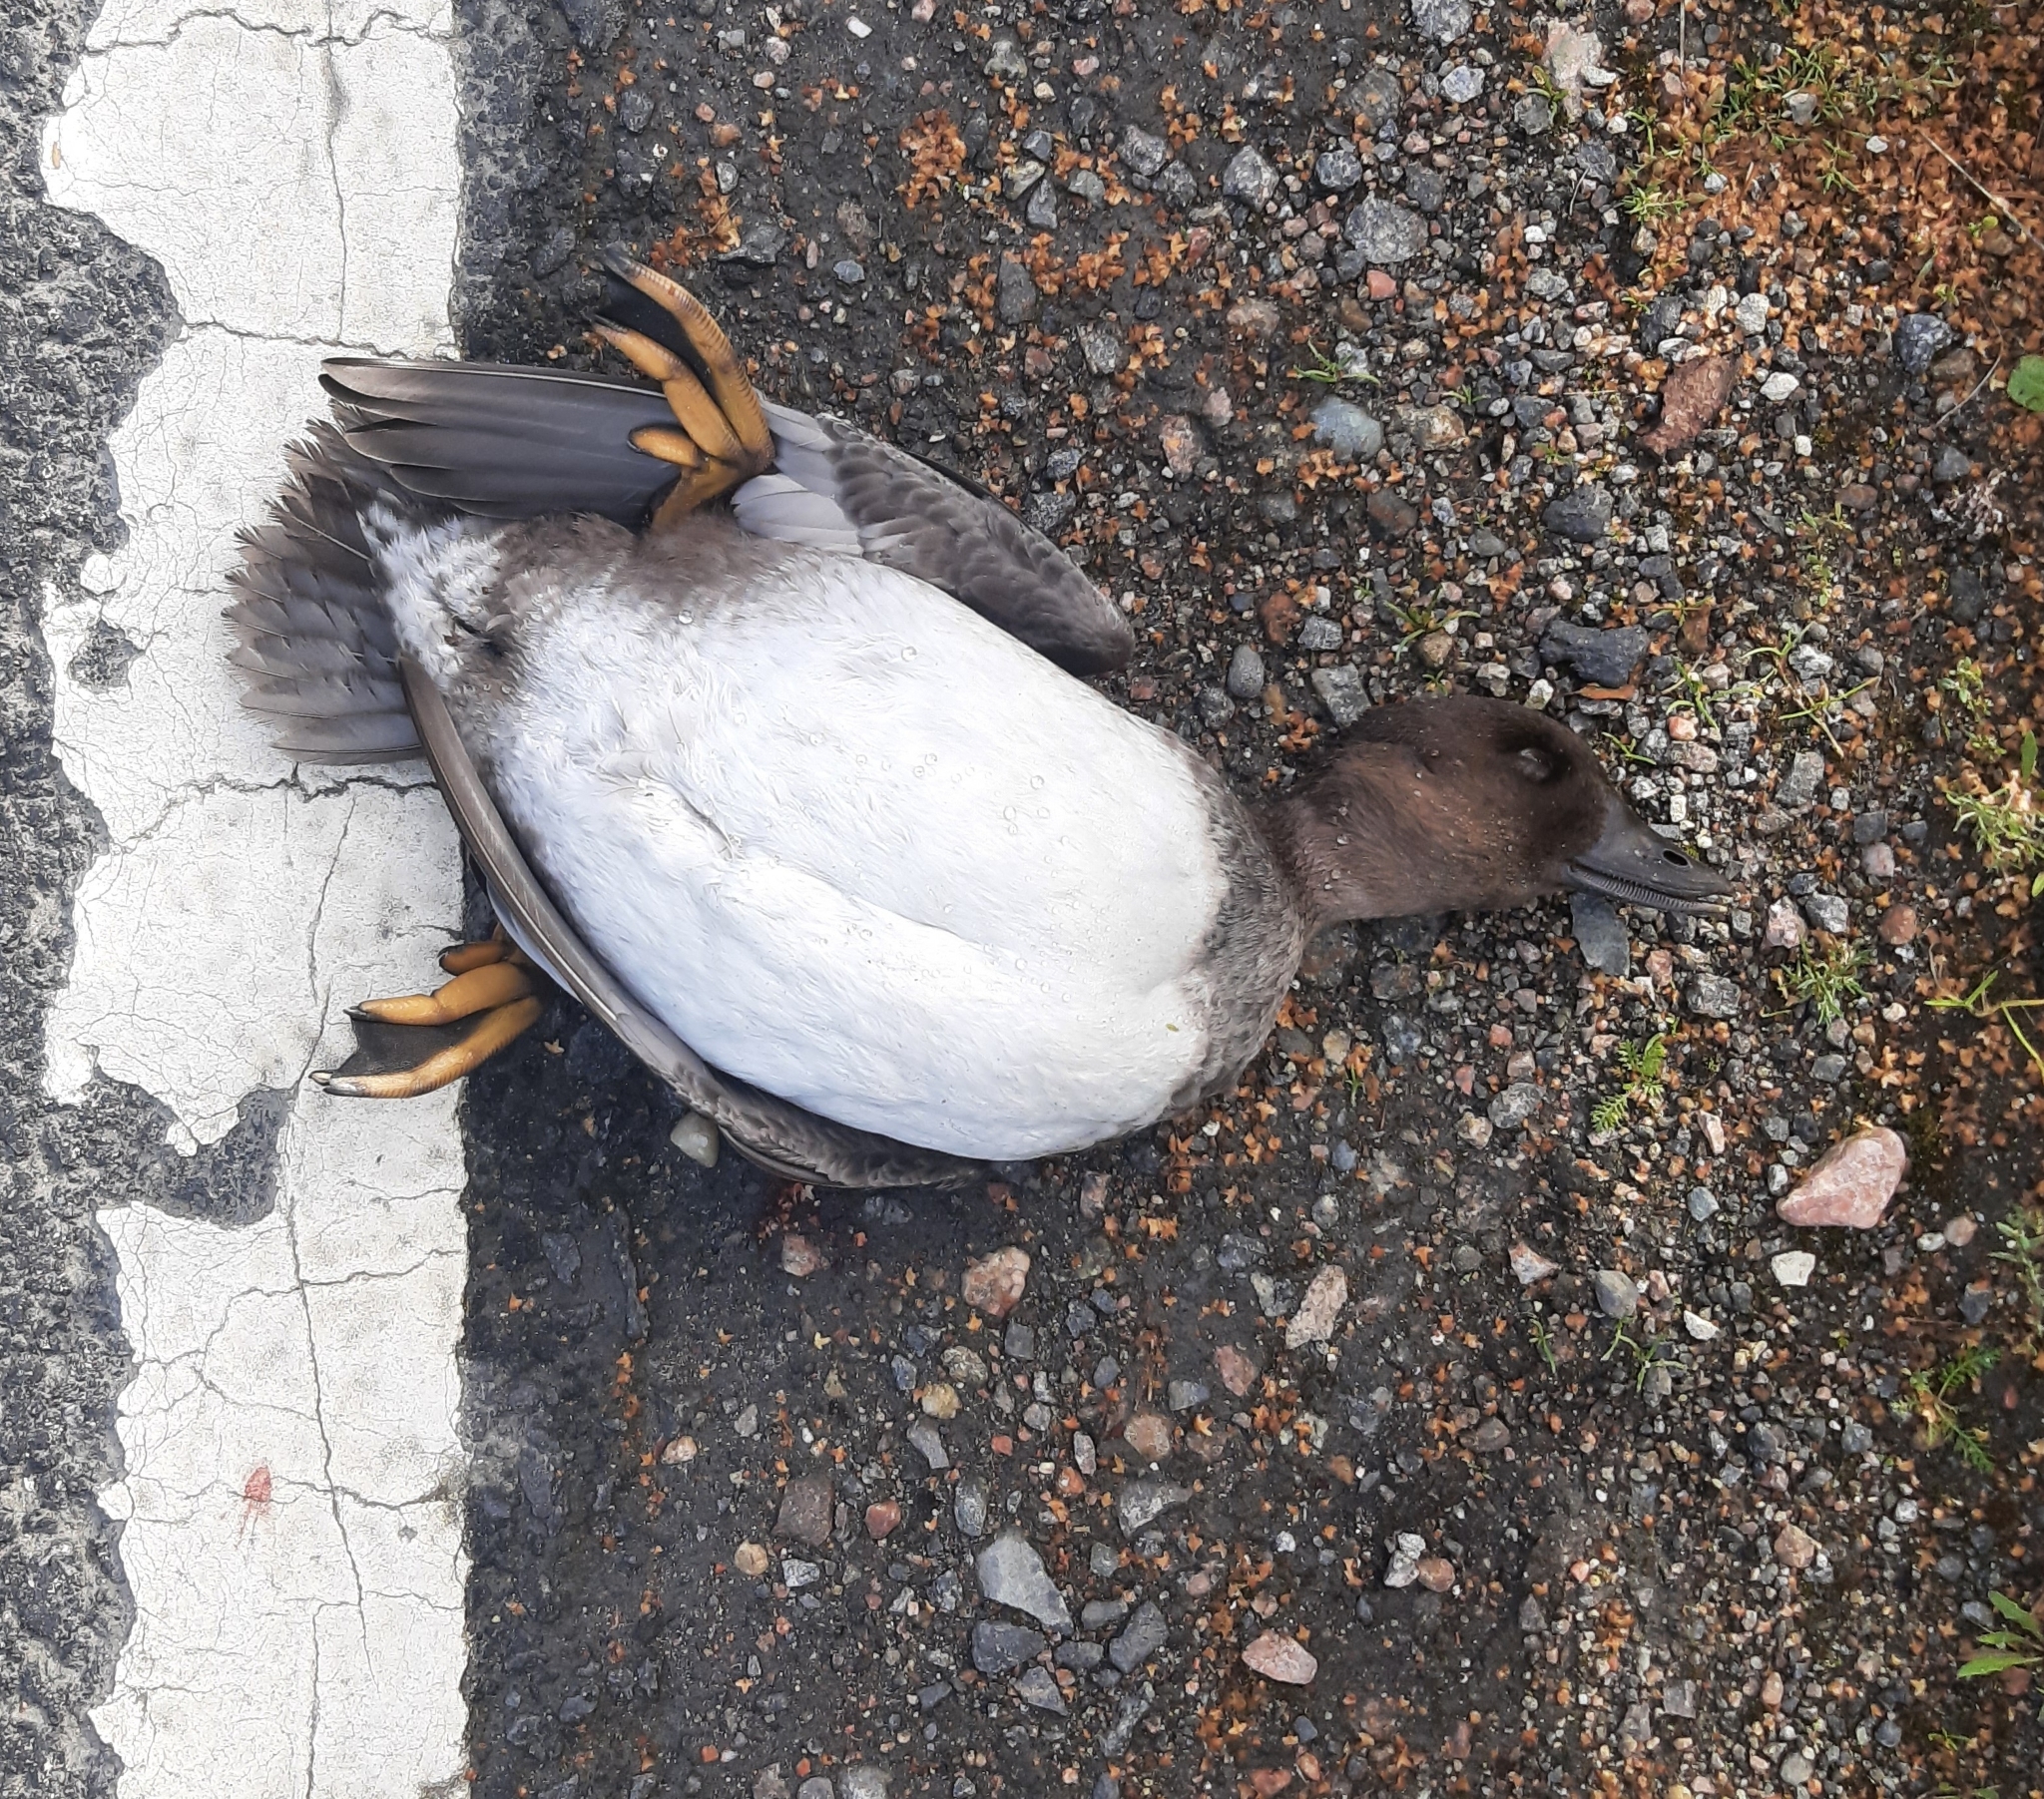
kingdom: Animalia
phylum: Chordata
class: Aves
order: Anseriformes
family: Anatidae
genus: Bucephala
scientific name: Bucephala clangula
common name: Common goldeneye
